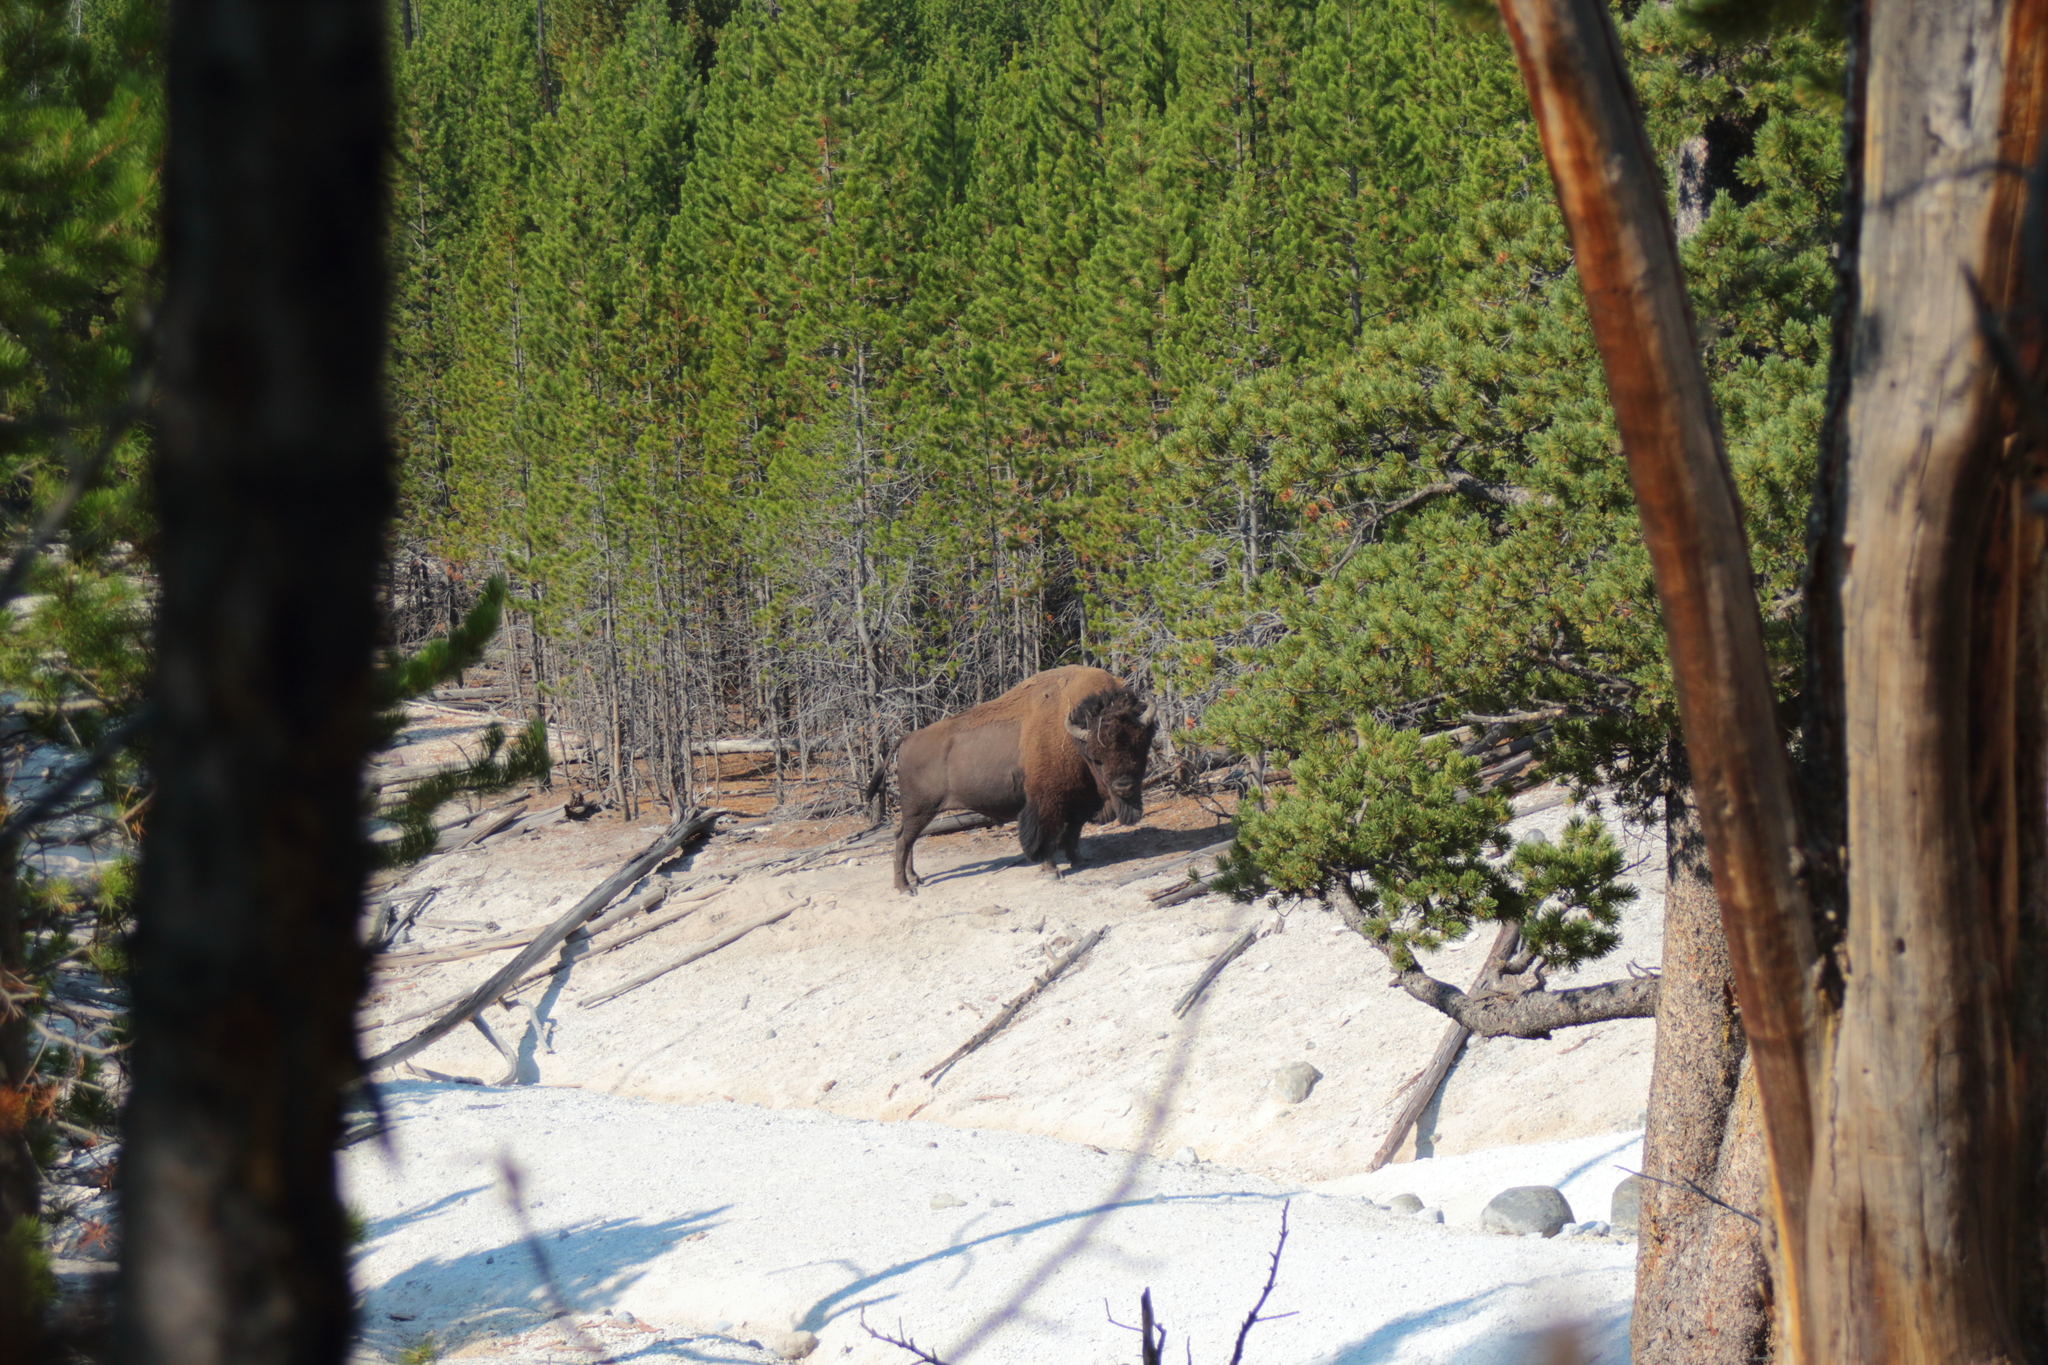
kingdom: Animalia
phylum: Chordata
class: Mammalia
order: Artiodactyla
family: Bovidae
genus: Bison
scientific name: Bison bison
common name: American bison
